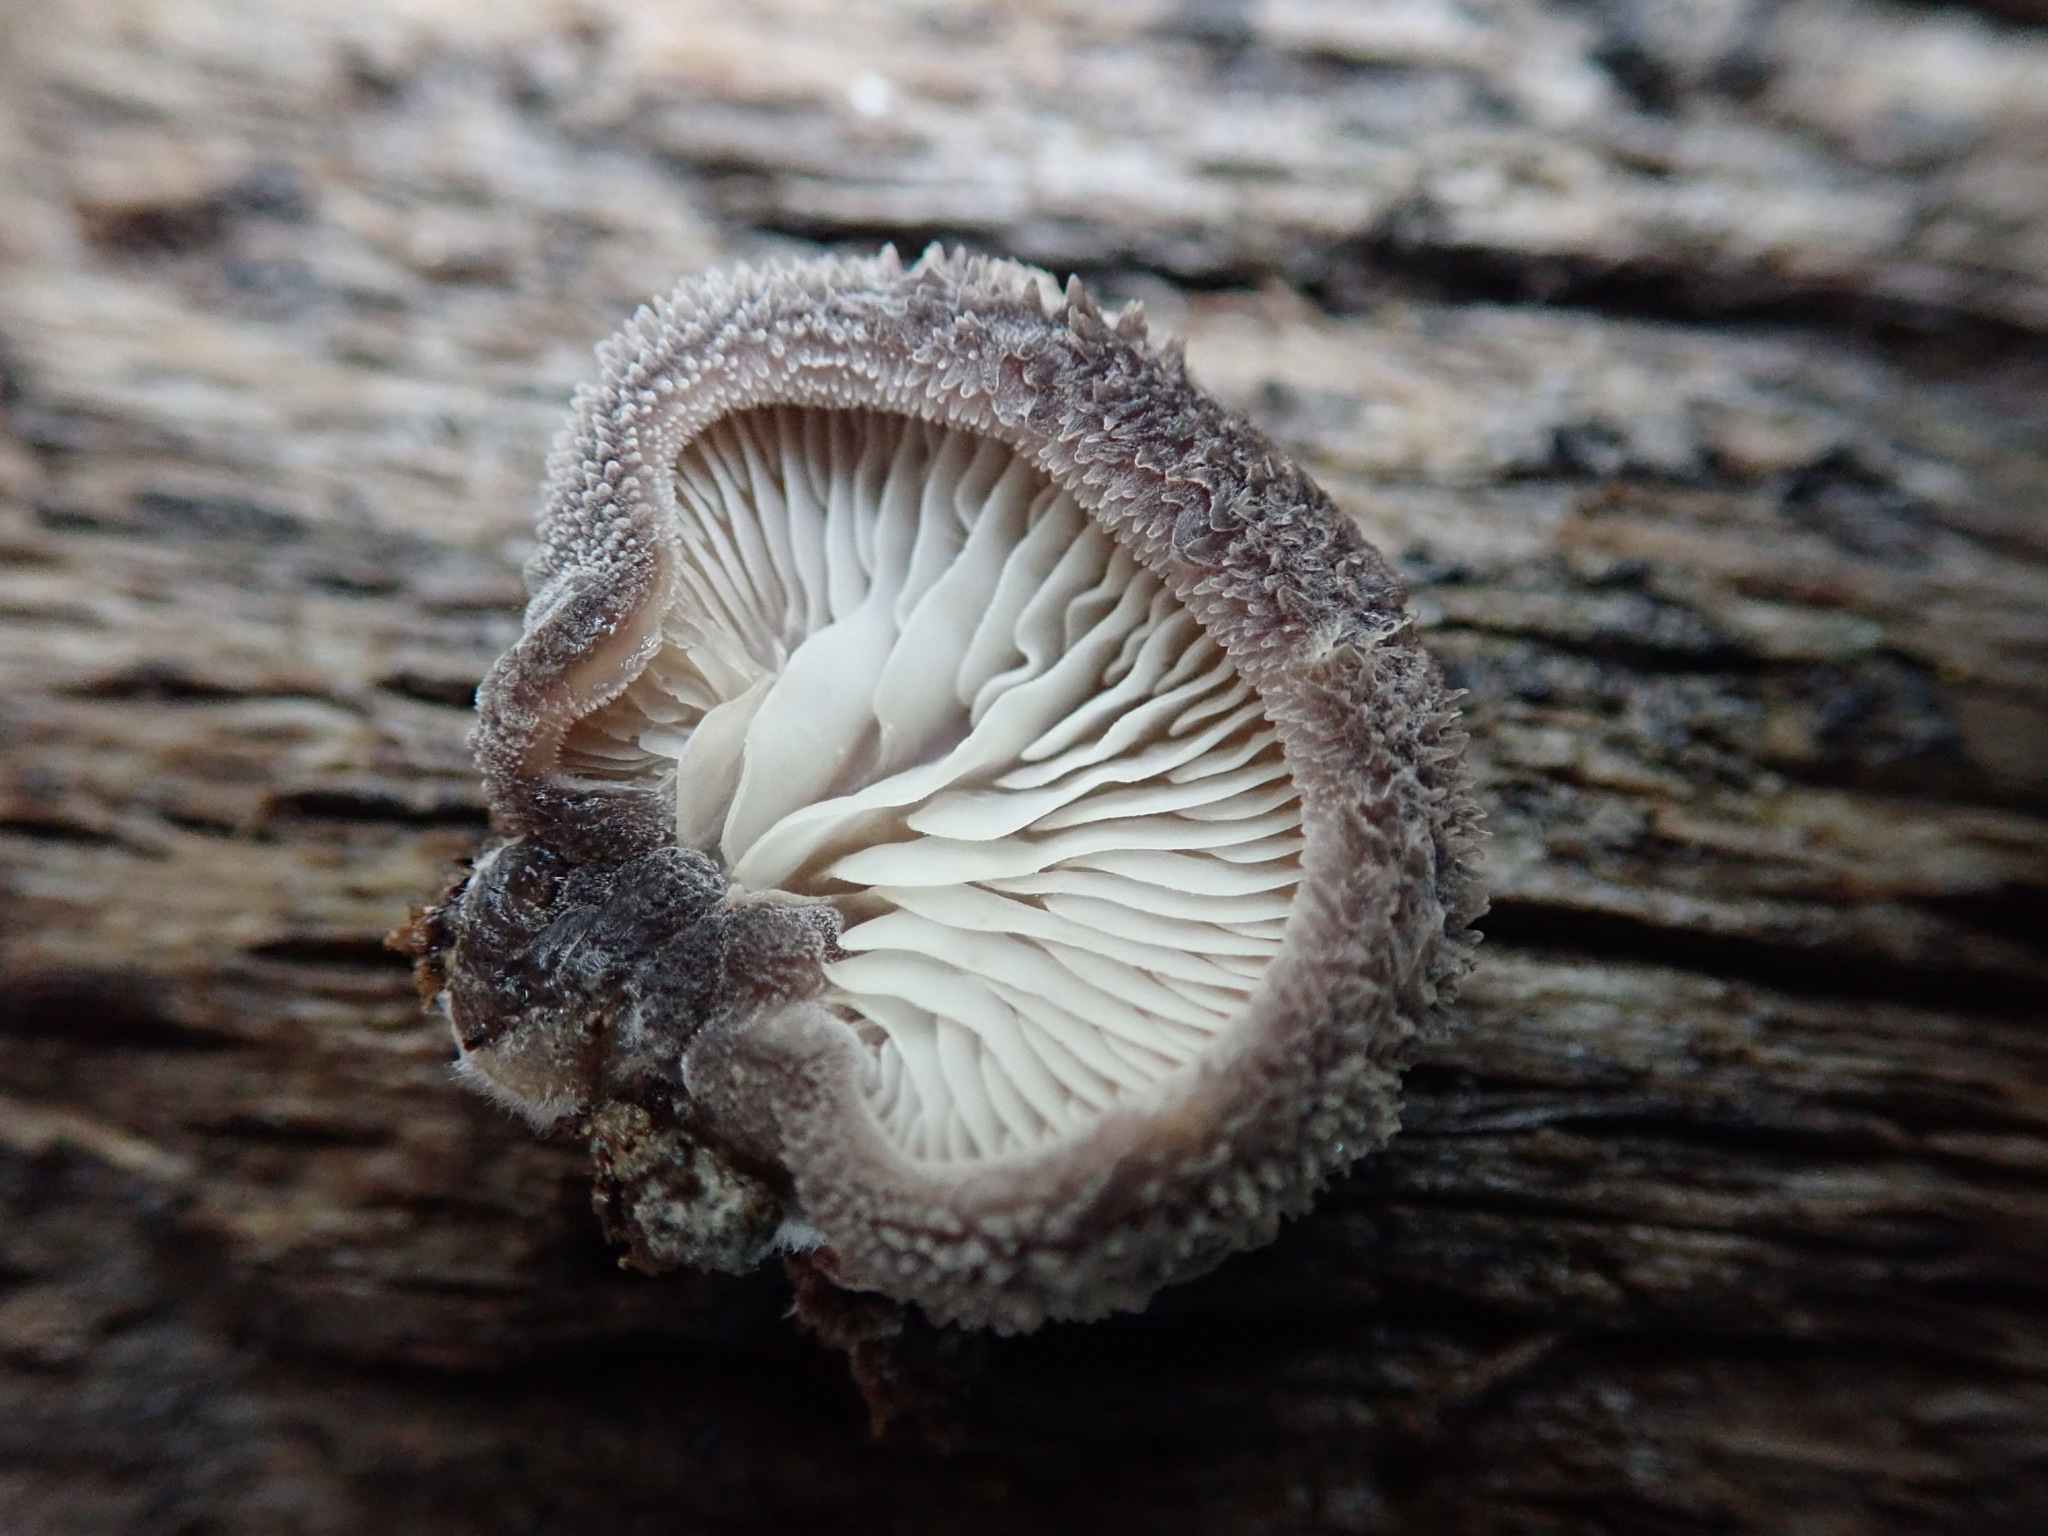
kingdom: Fungi
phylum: Basidiomycota
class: Agaricomycetes
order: Agaricales
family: Pleurotaceae
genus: Hohenbuehelia
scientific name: Hohenbuehelia mastrucata
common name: Woolly oyster
